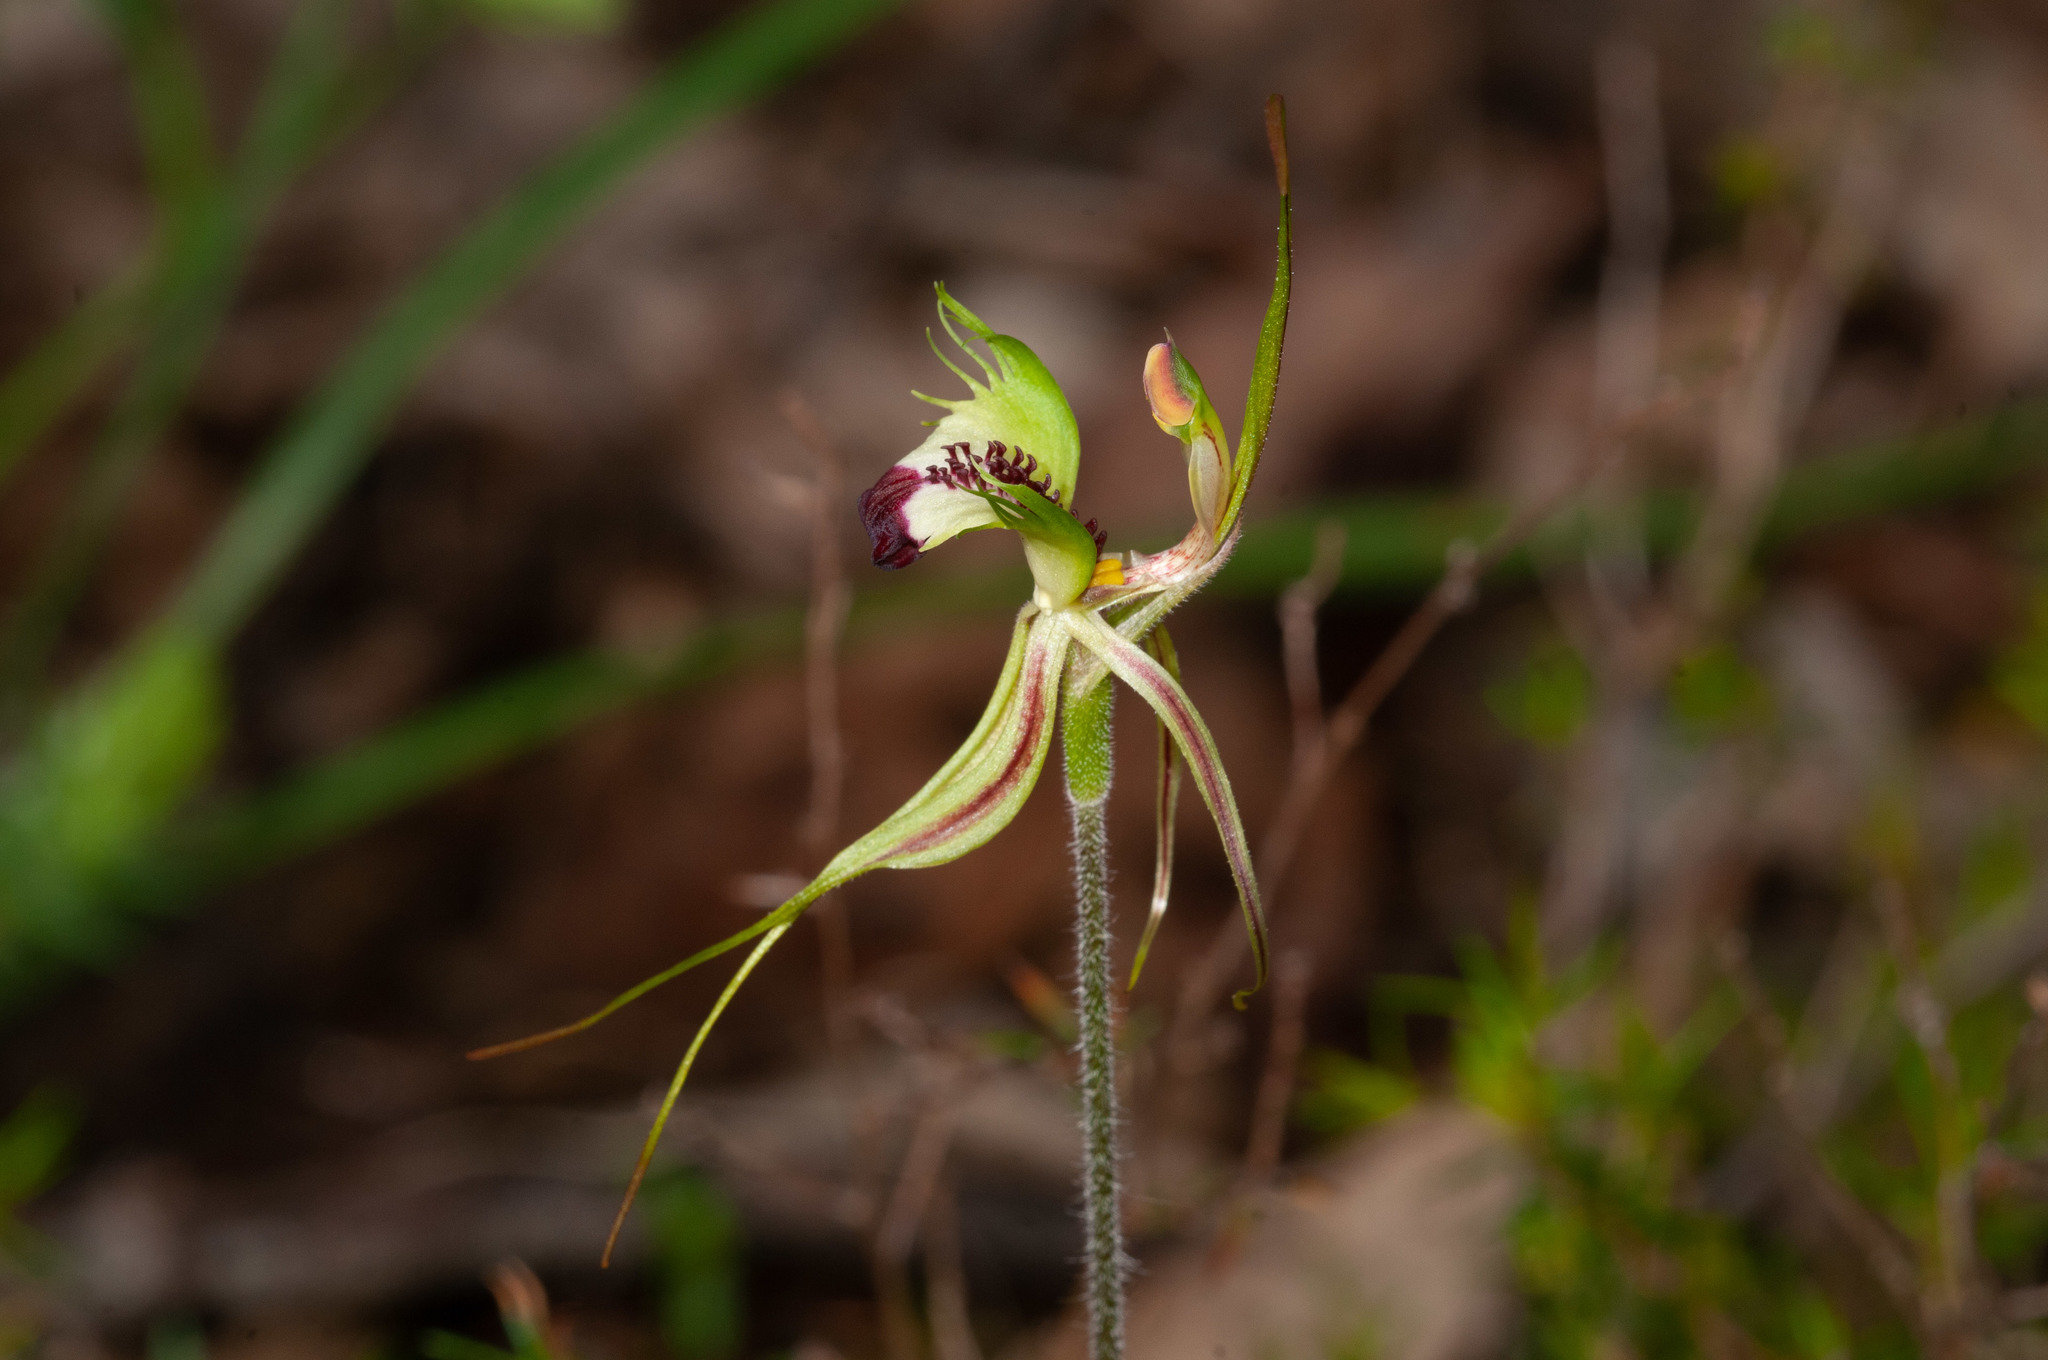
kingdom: Plantae
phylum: Tracheophyta
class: Liliopsida
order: Asparagales
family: Orchidaceae
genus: Caladenia
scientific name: Caladenia tentaculata
